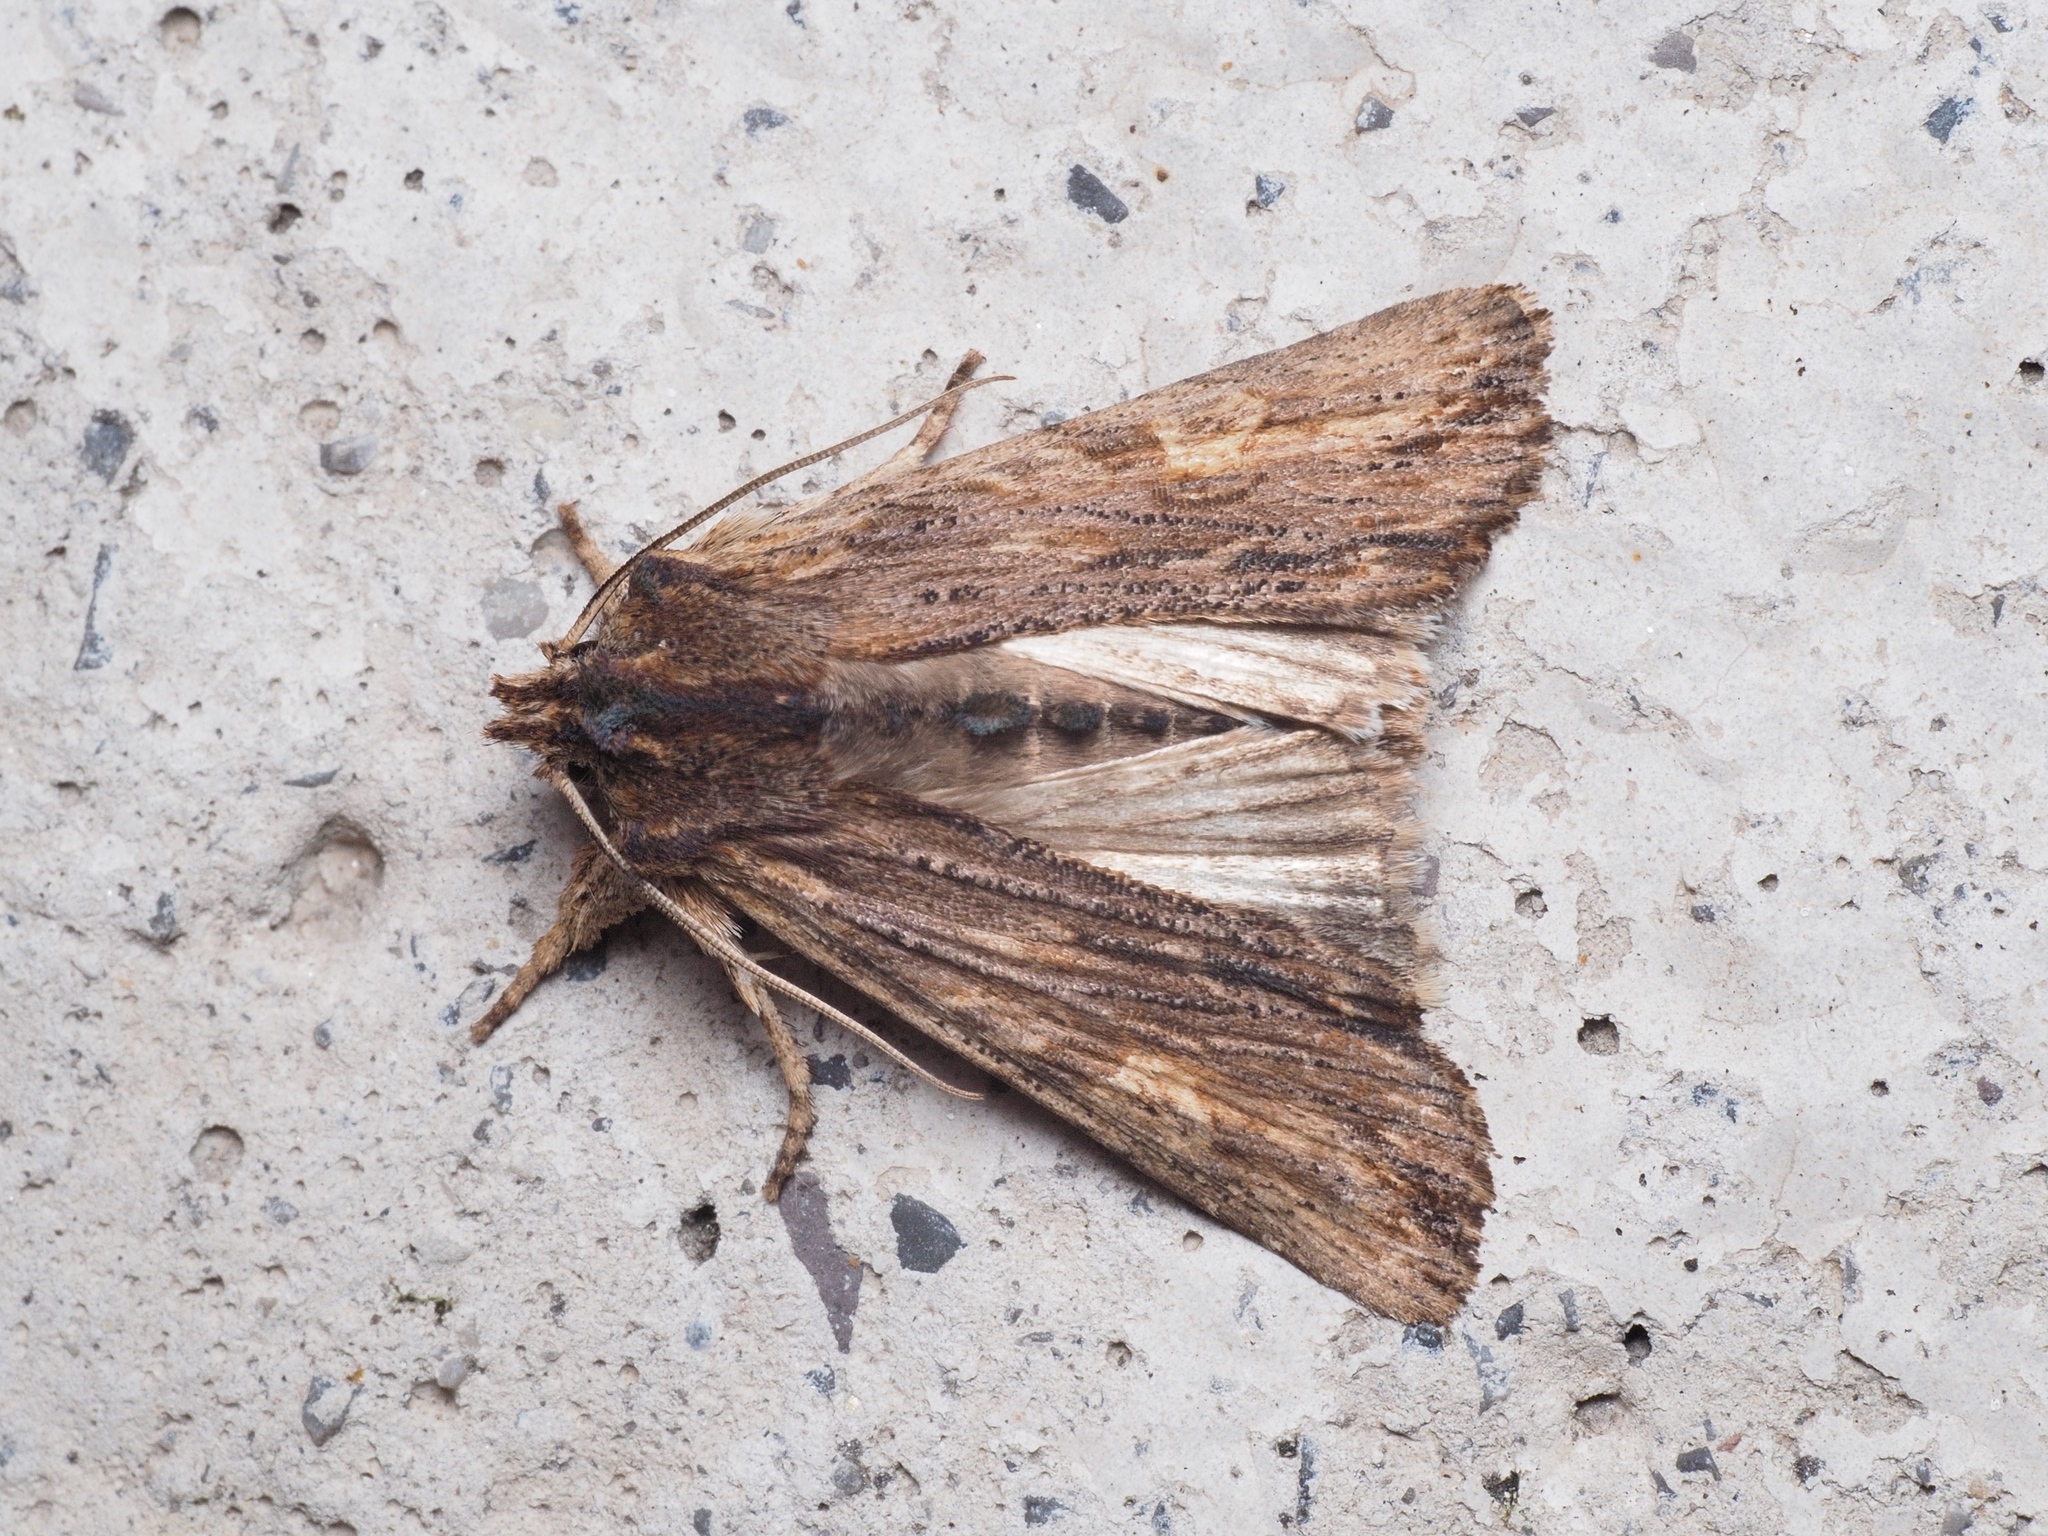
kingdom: Animalia
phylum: Arthropoda
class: Insecta
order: Lepidoptera
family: Noctuidae
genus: Lithophane
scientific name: Lithophane semibrunnea
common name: Tawny pinion
